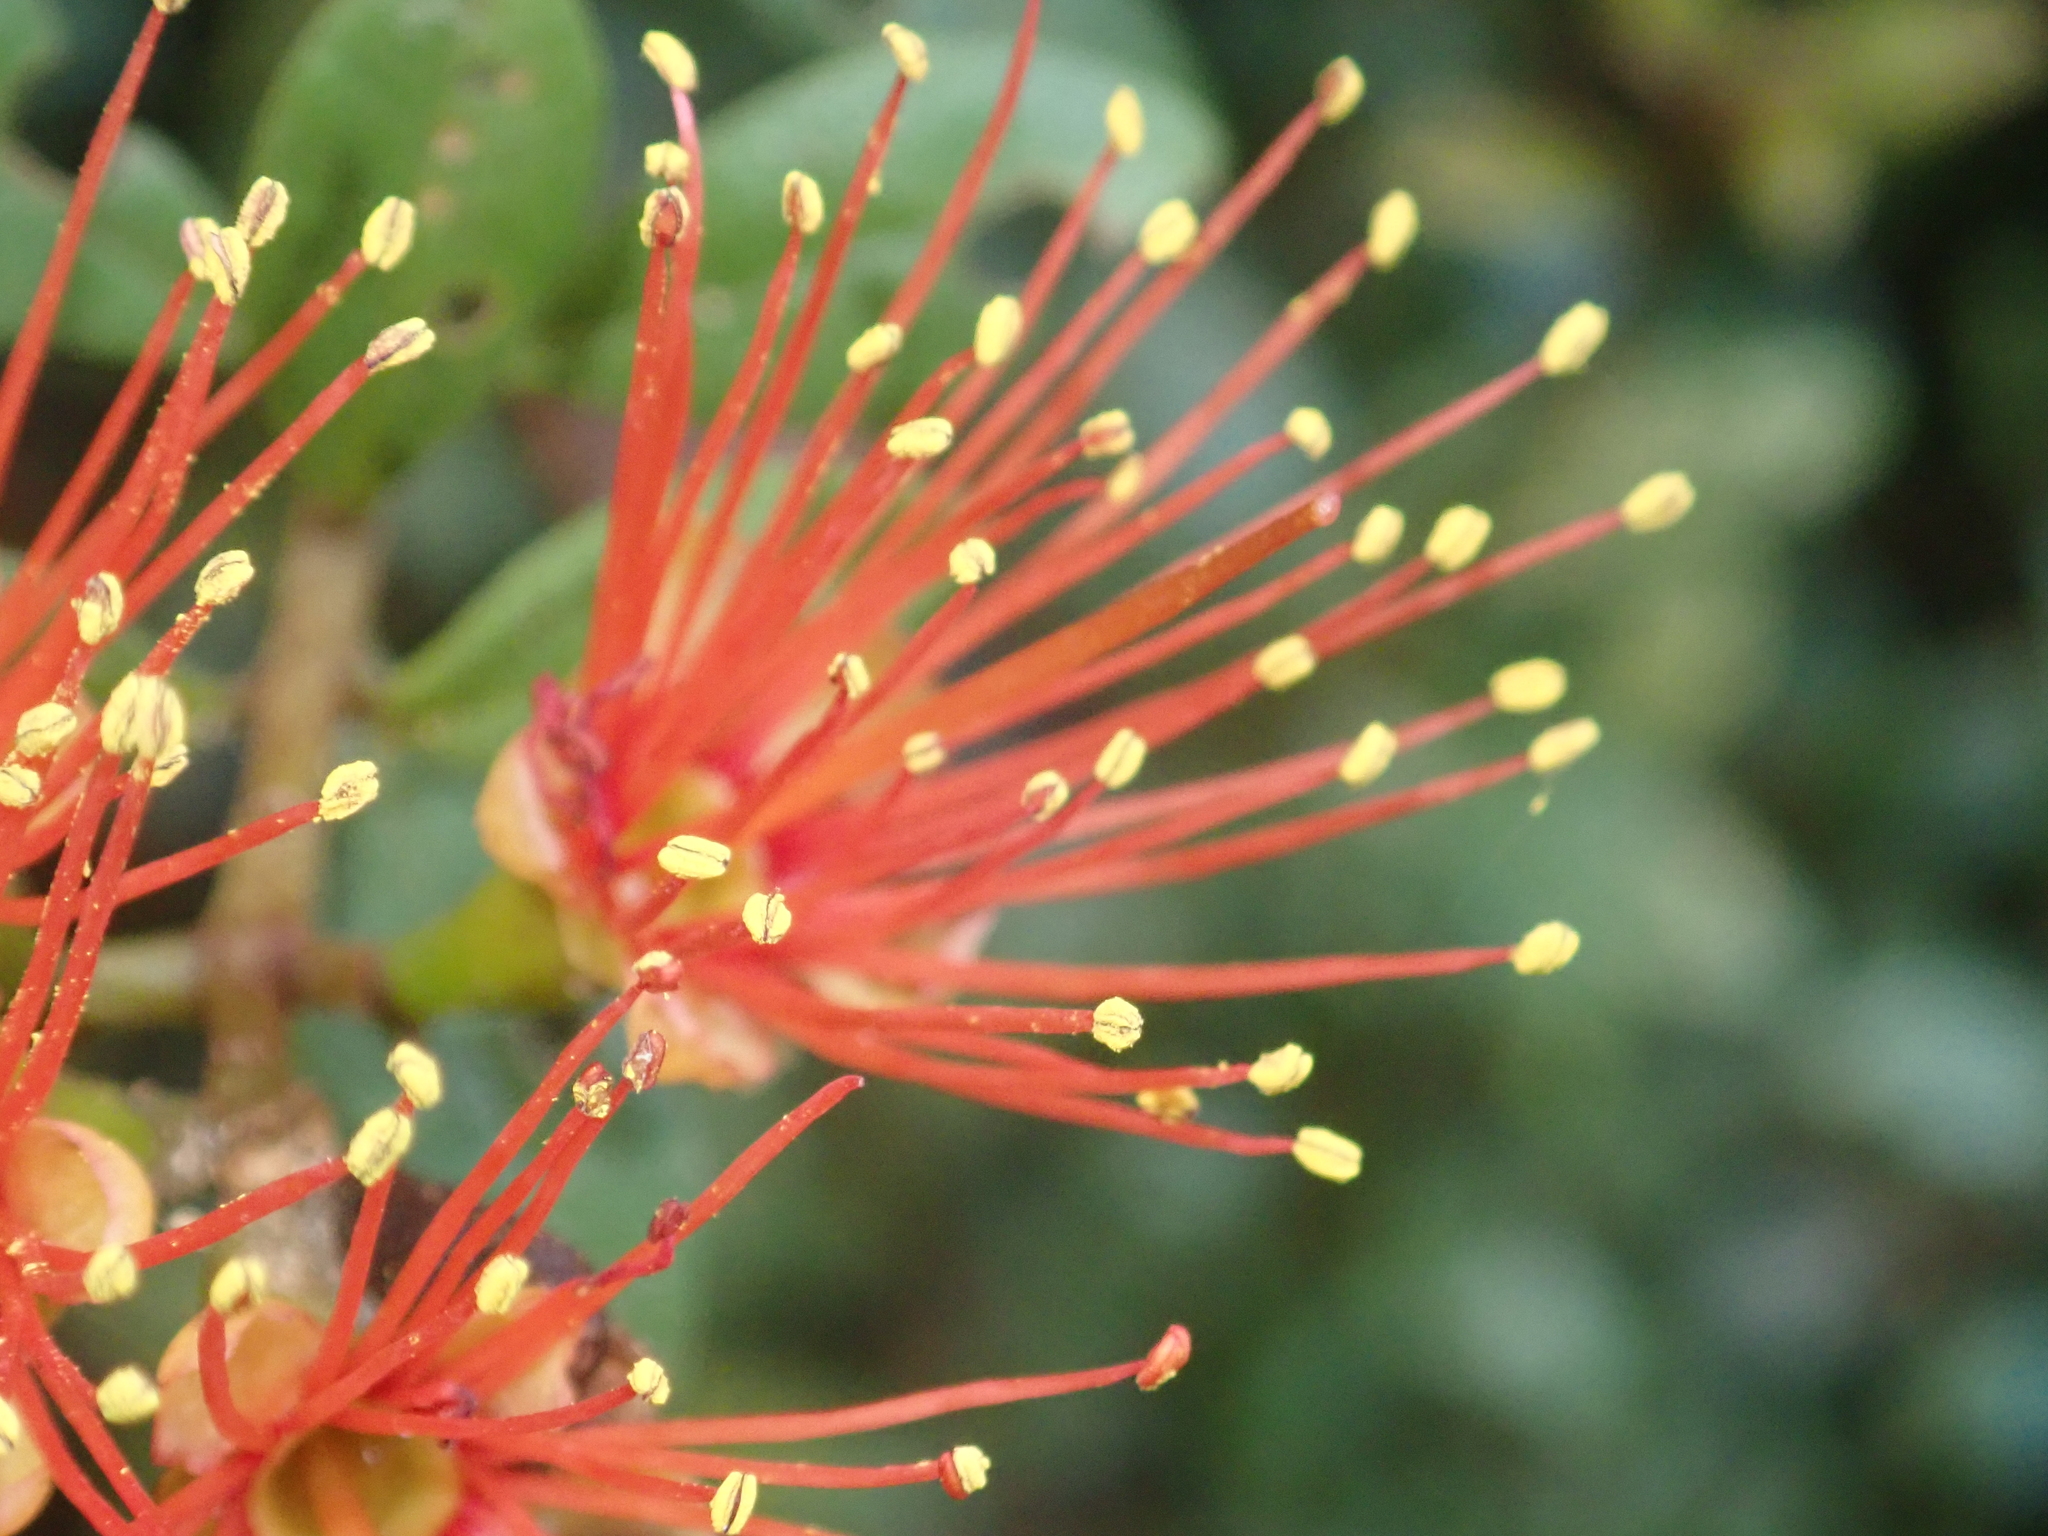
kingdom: Plantae
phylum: Tracheophyta
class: Magnoliopsida
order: Myrtales
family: Myrtaceae
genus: Metrosideros
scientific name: Metrosideros fulgens
